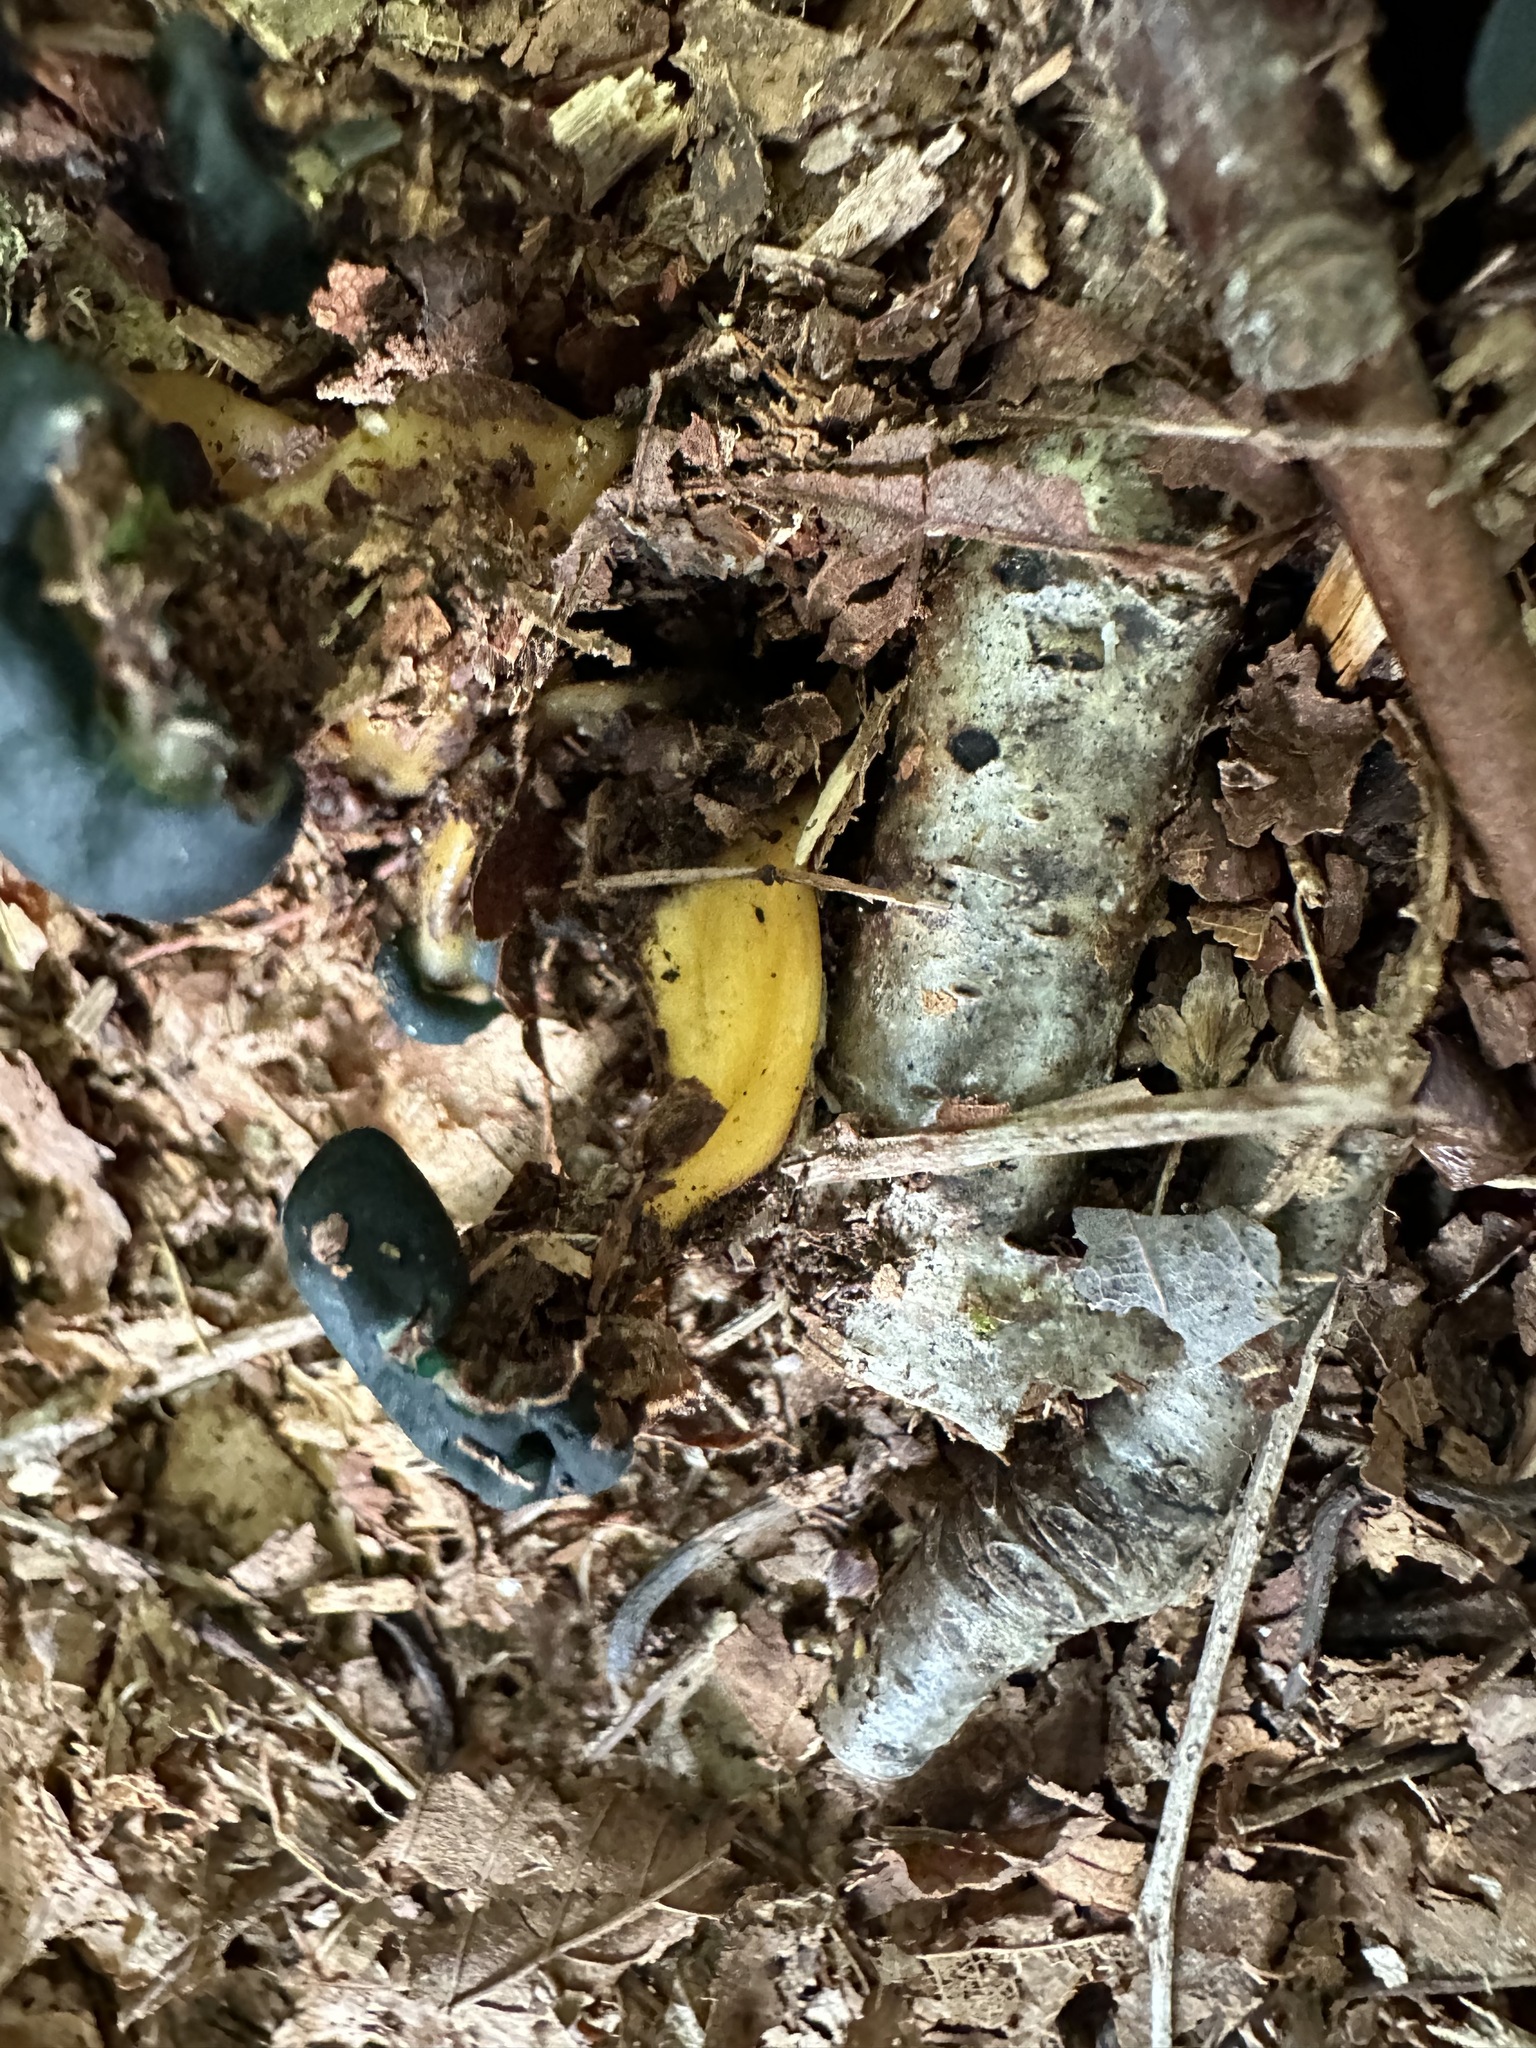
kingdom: Fungi
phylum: Ascomycota
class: Leotiomycetes
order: Leotiales
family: Leotiaceae
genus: Leotia
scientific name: Leotia lubrica
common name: Jellybaby
